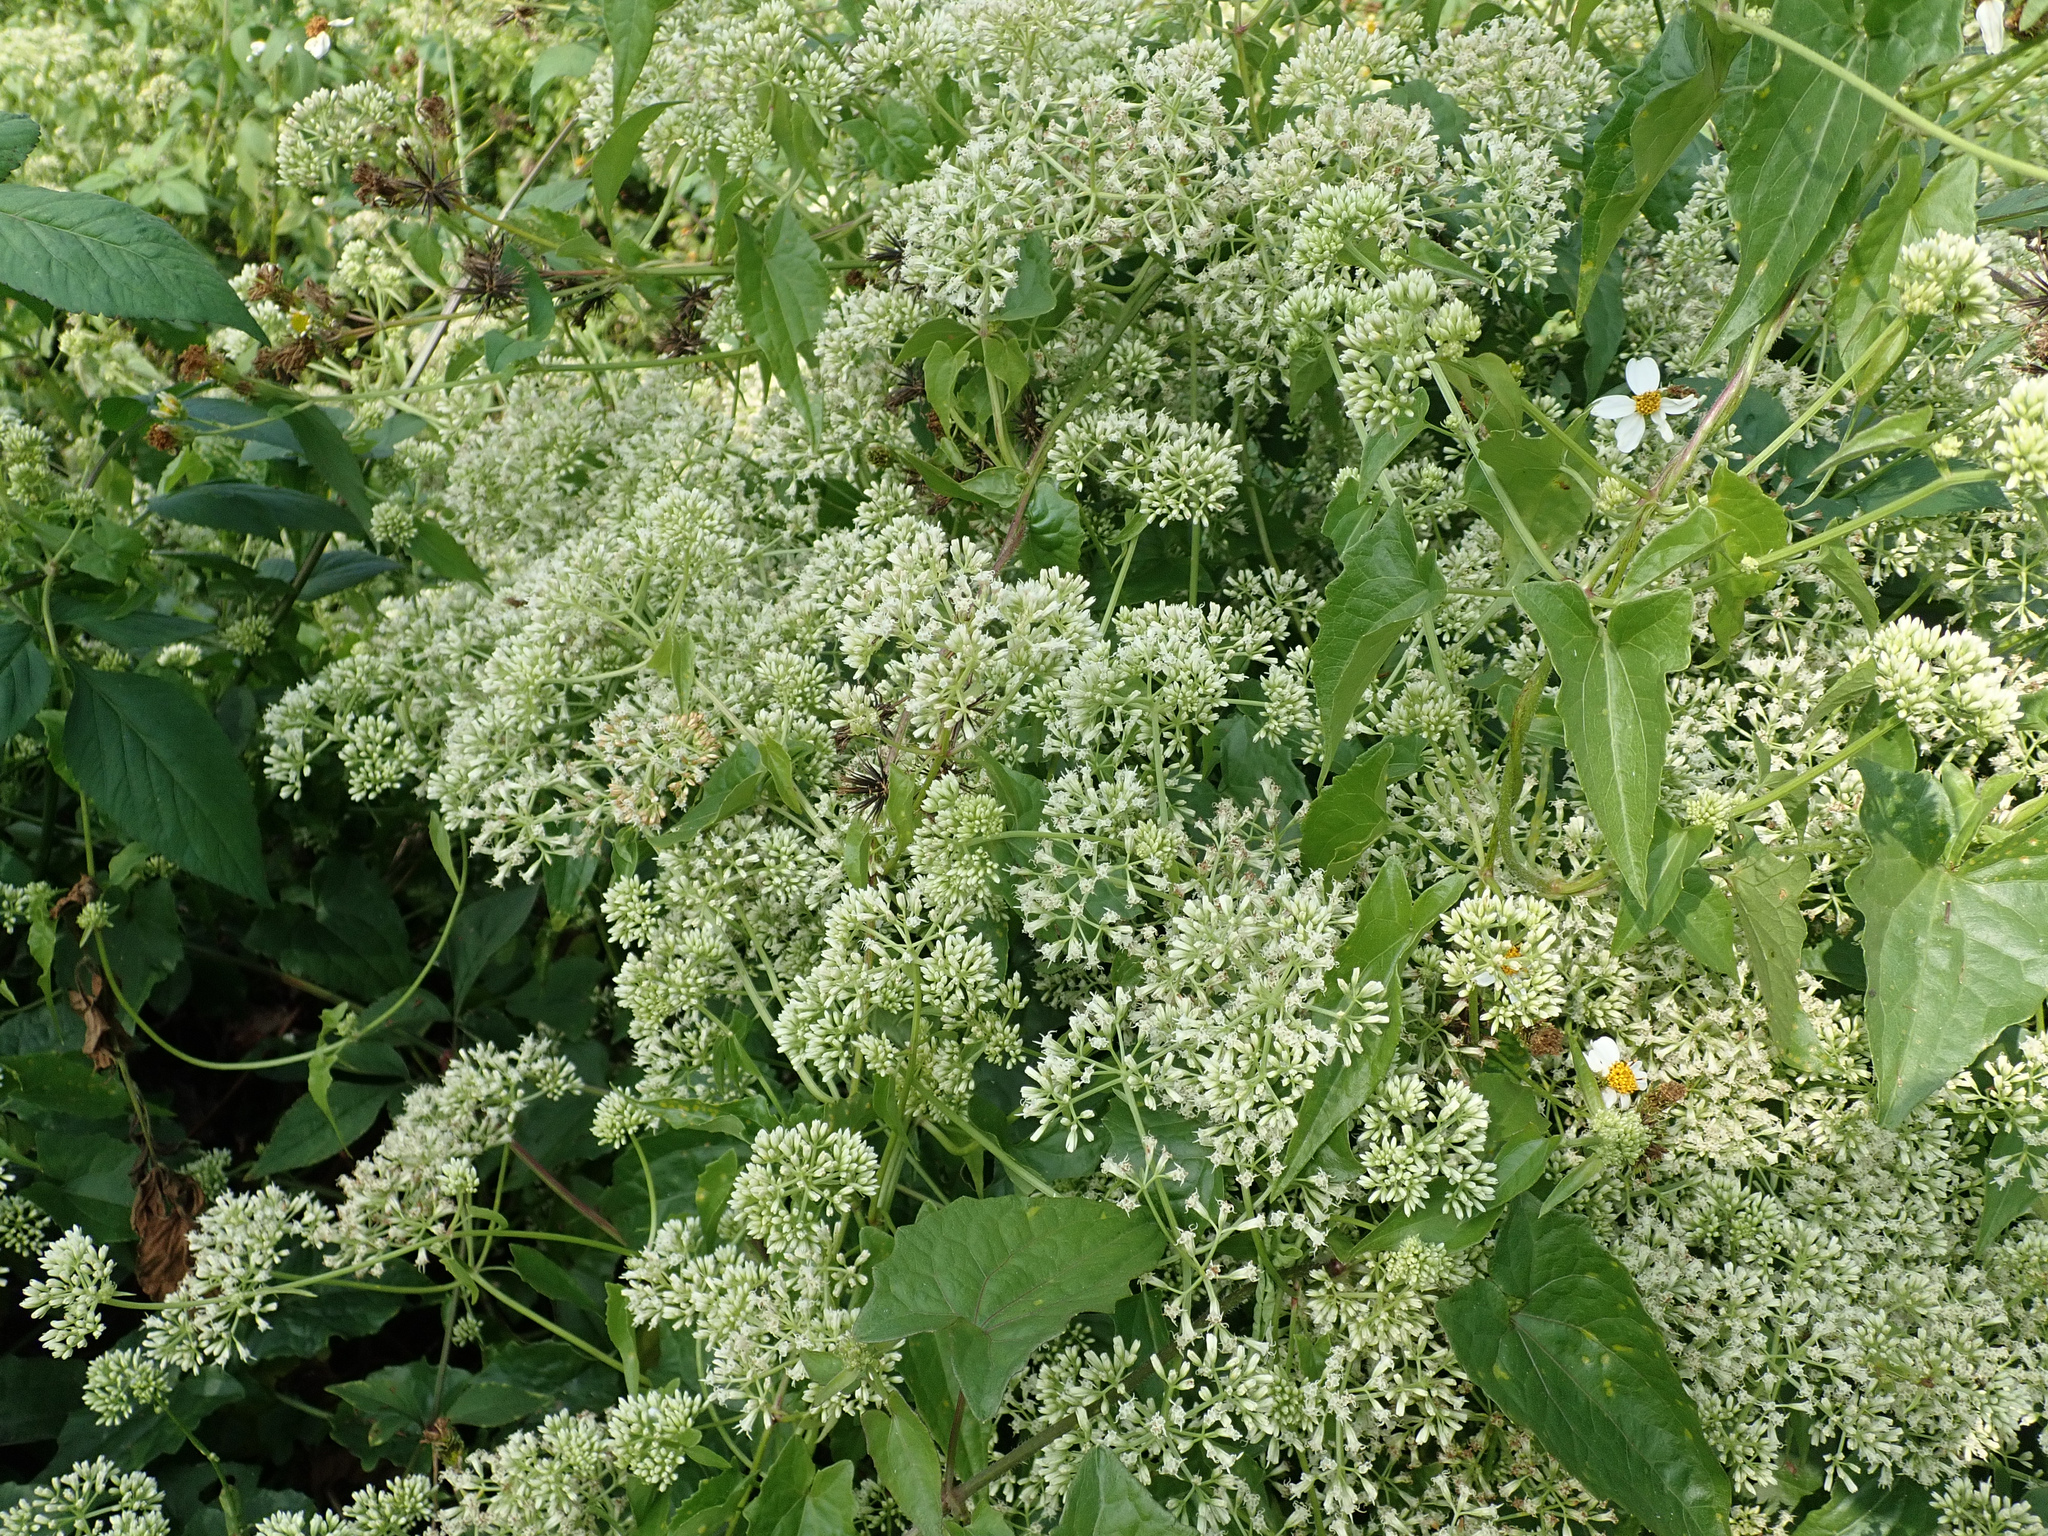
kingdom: Plantae
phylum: Tracheophyta
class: Magnoliopsida
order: Asterales
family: Asteraceae
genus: Mikania
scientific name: Mikania micrantha
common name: Mile-a-minute
